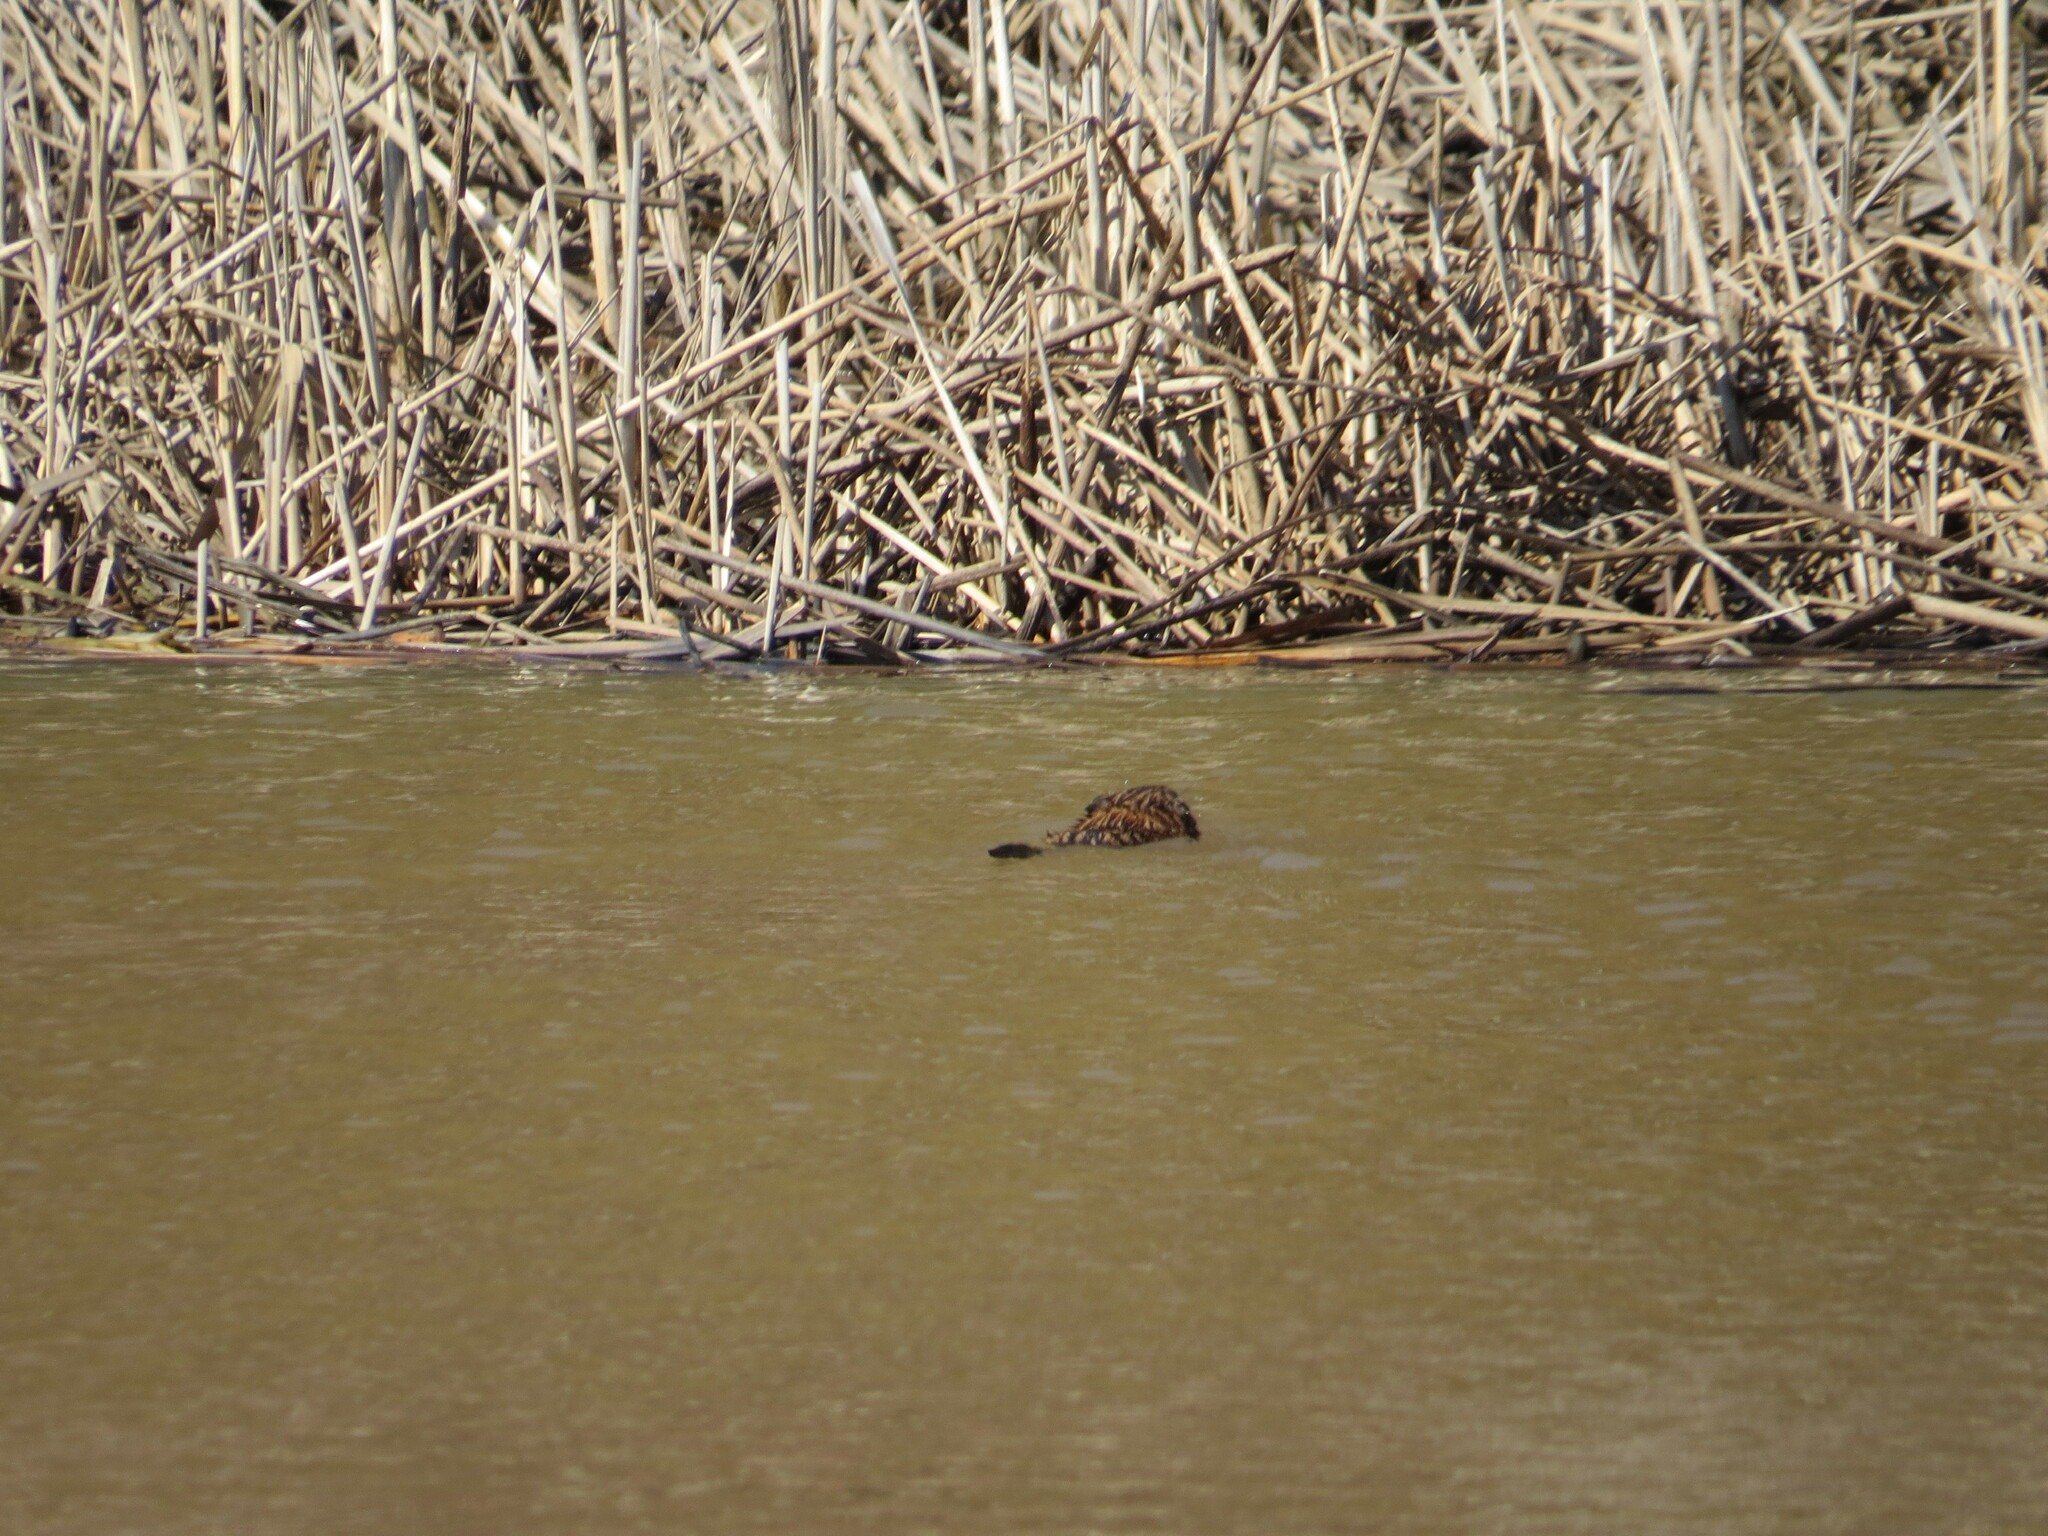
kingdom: Animalia
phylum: Chordata
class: Mammalia
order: Rodentia
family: Cricetidae
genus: Ondatra
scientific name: Ondatra zibethicus
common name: Muskrat
